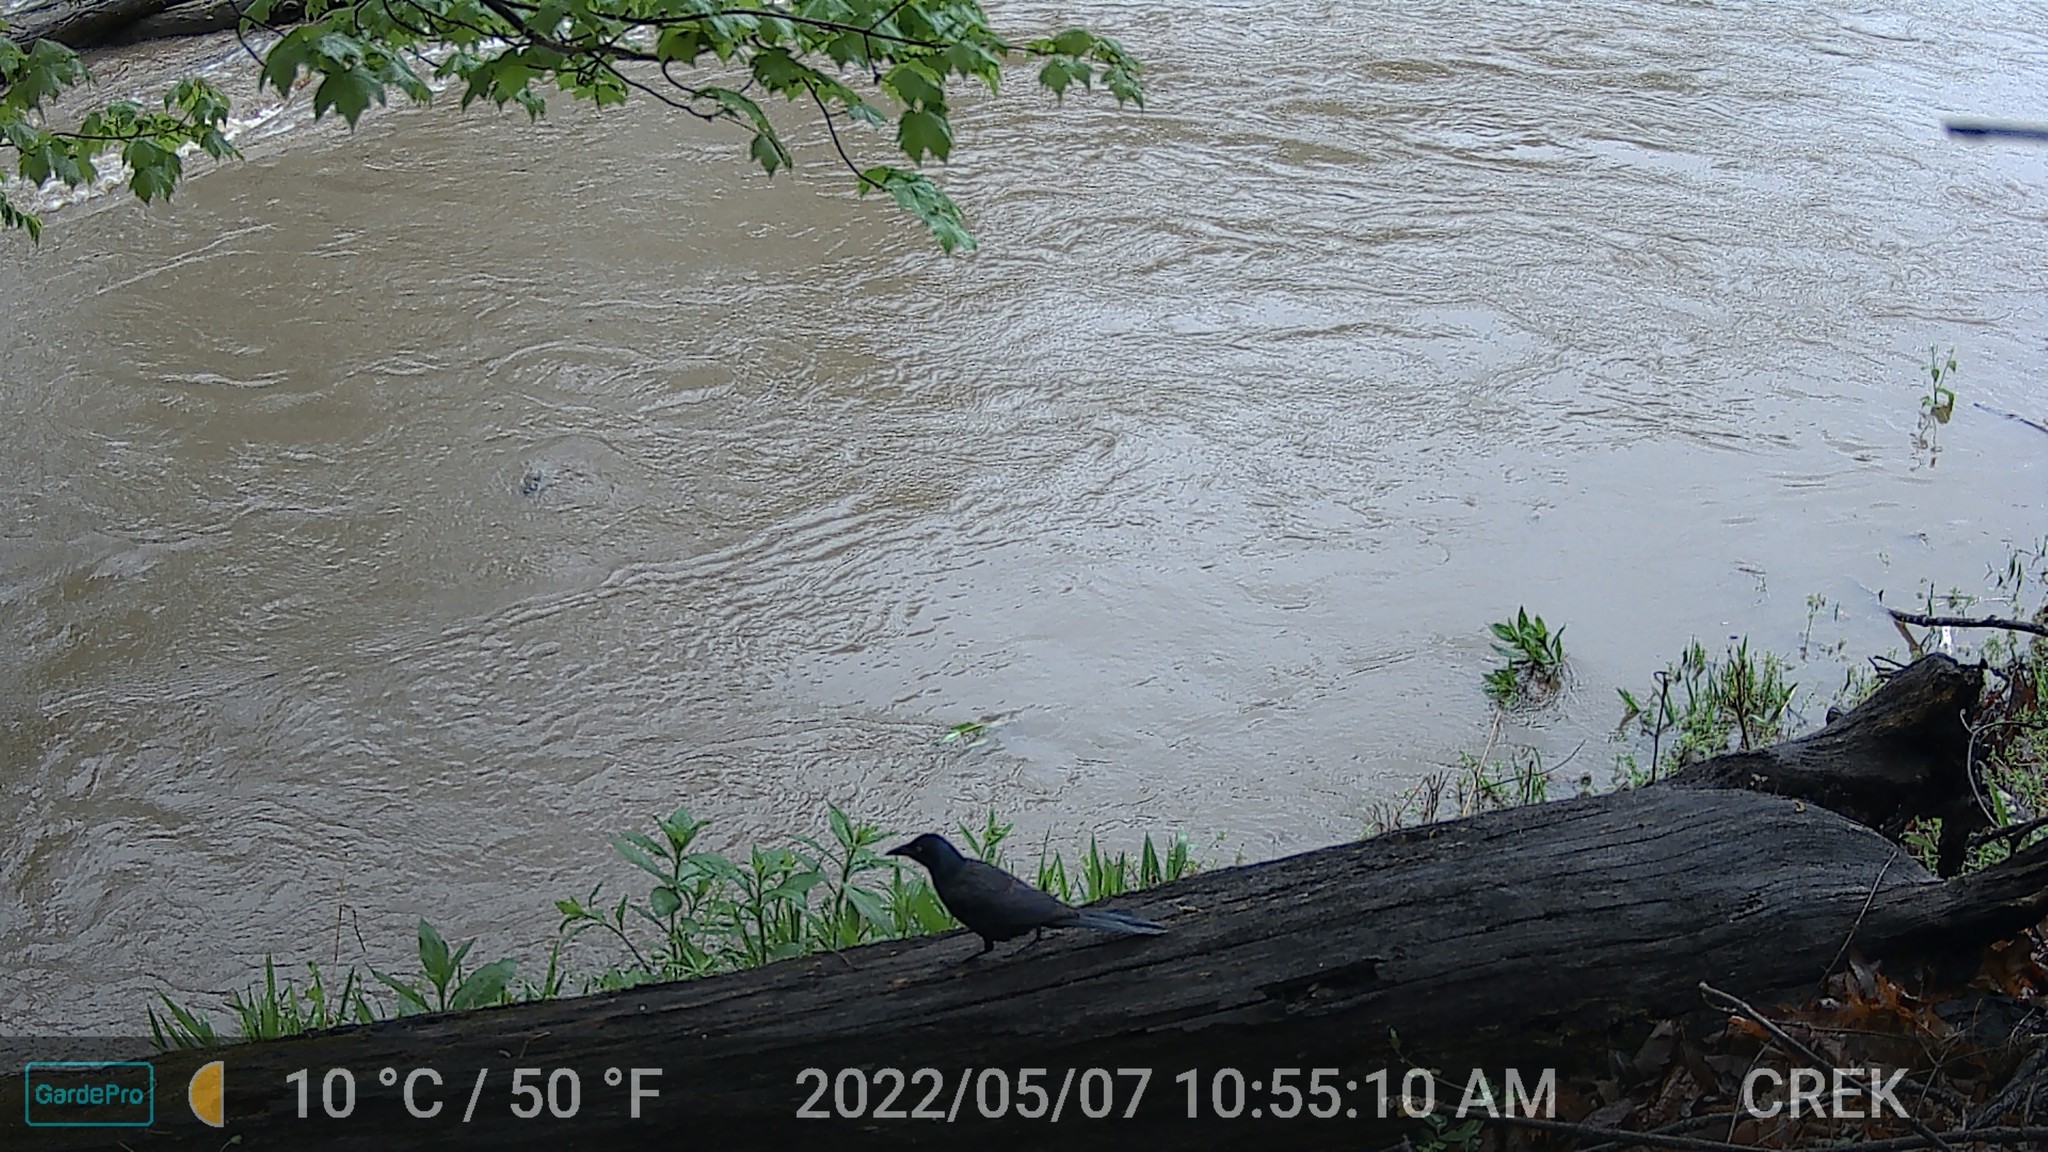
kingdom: Animalia
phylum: Chordata
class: Aves
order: Passeriformes
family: Icteridae
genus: Quiscalus
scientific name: Quiscalus quiscula
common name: Common grackle
